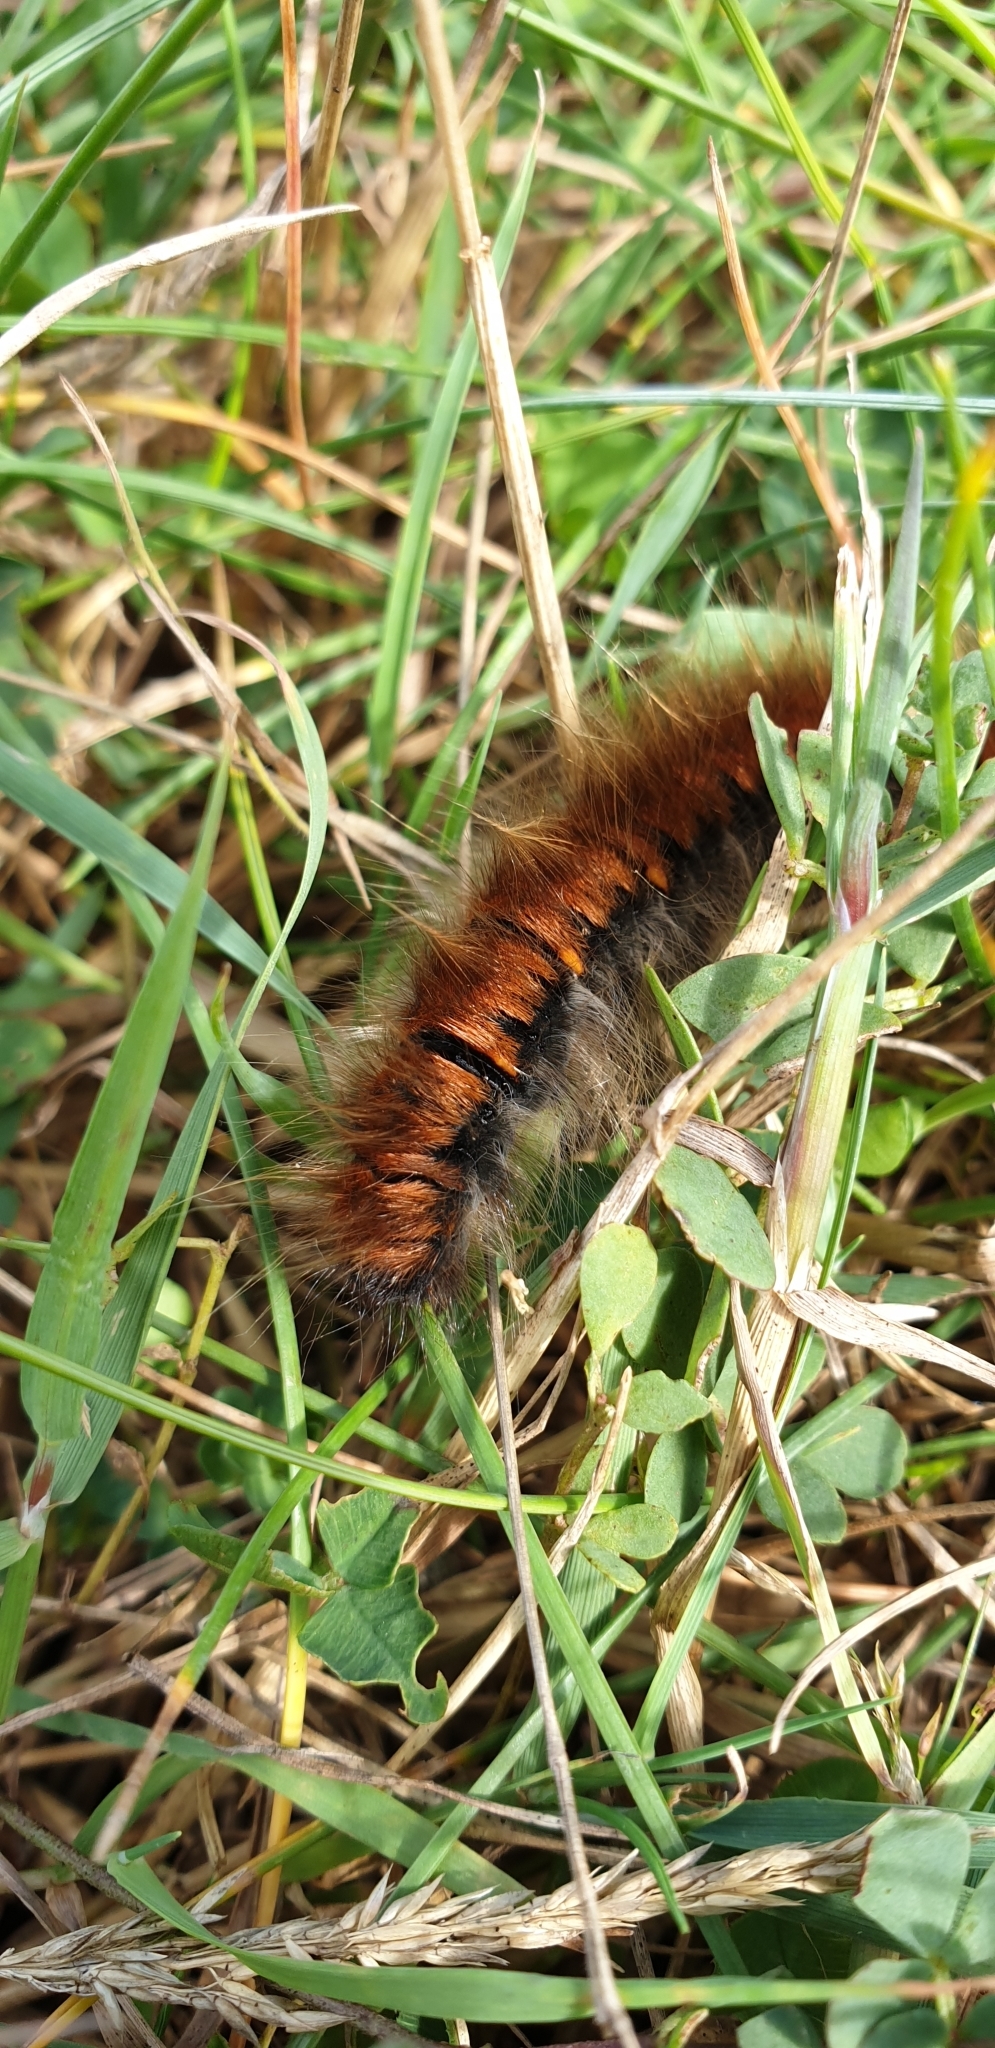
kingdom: Animalia
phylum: Arthropoda
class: Insecta
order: Lepidoptera
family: Lasiocampidae
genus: Macrothylacia
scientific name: Macrothylacia rubi
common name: Fox moth
